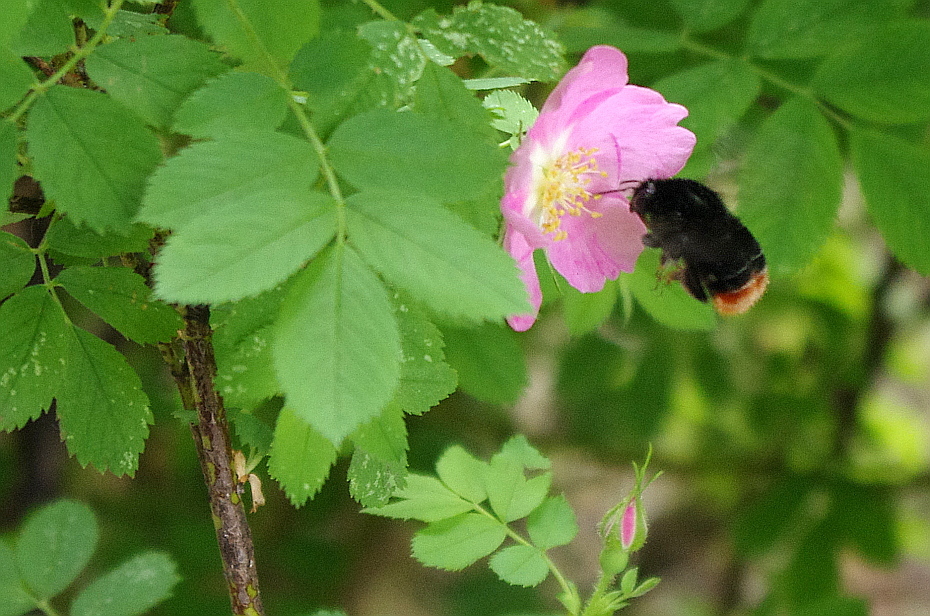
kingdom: Animalia
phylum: Arthropoda
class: Insecta
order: Hymenoptera
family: Apidae
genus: Bombus
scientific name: Bombus lapidarius
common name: Large red-tailed humble-bee
